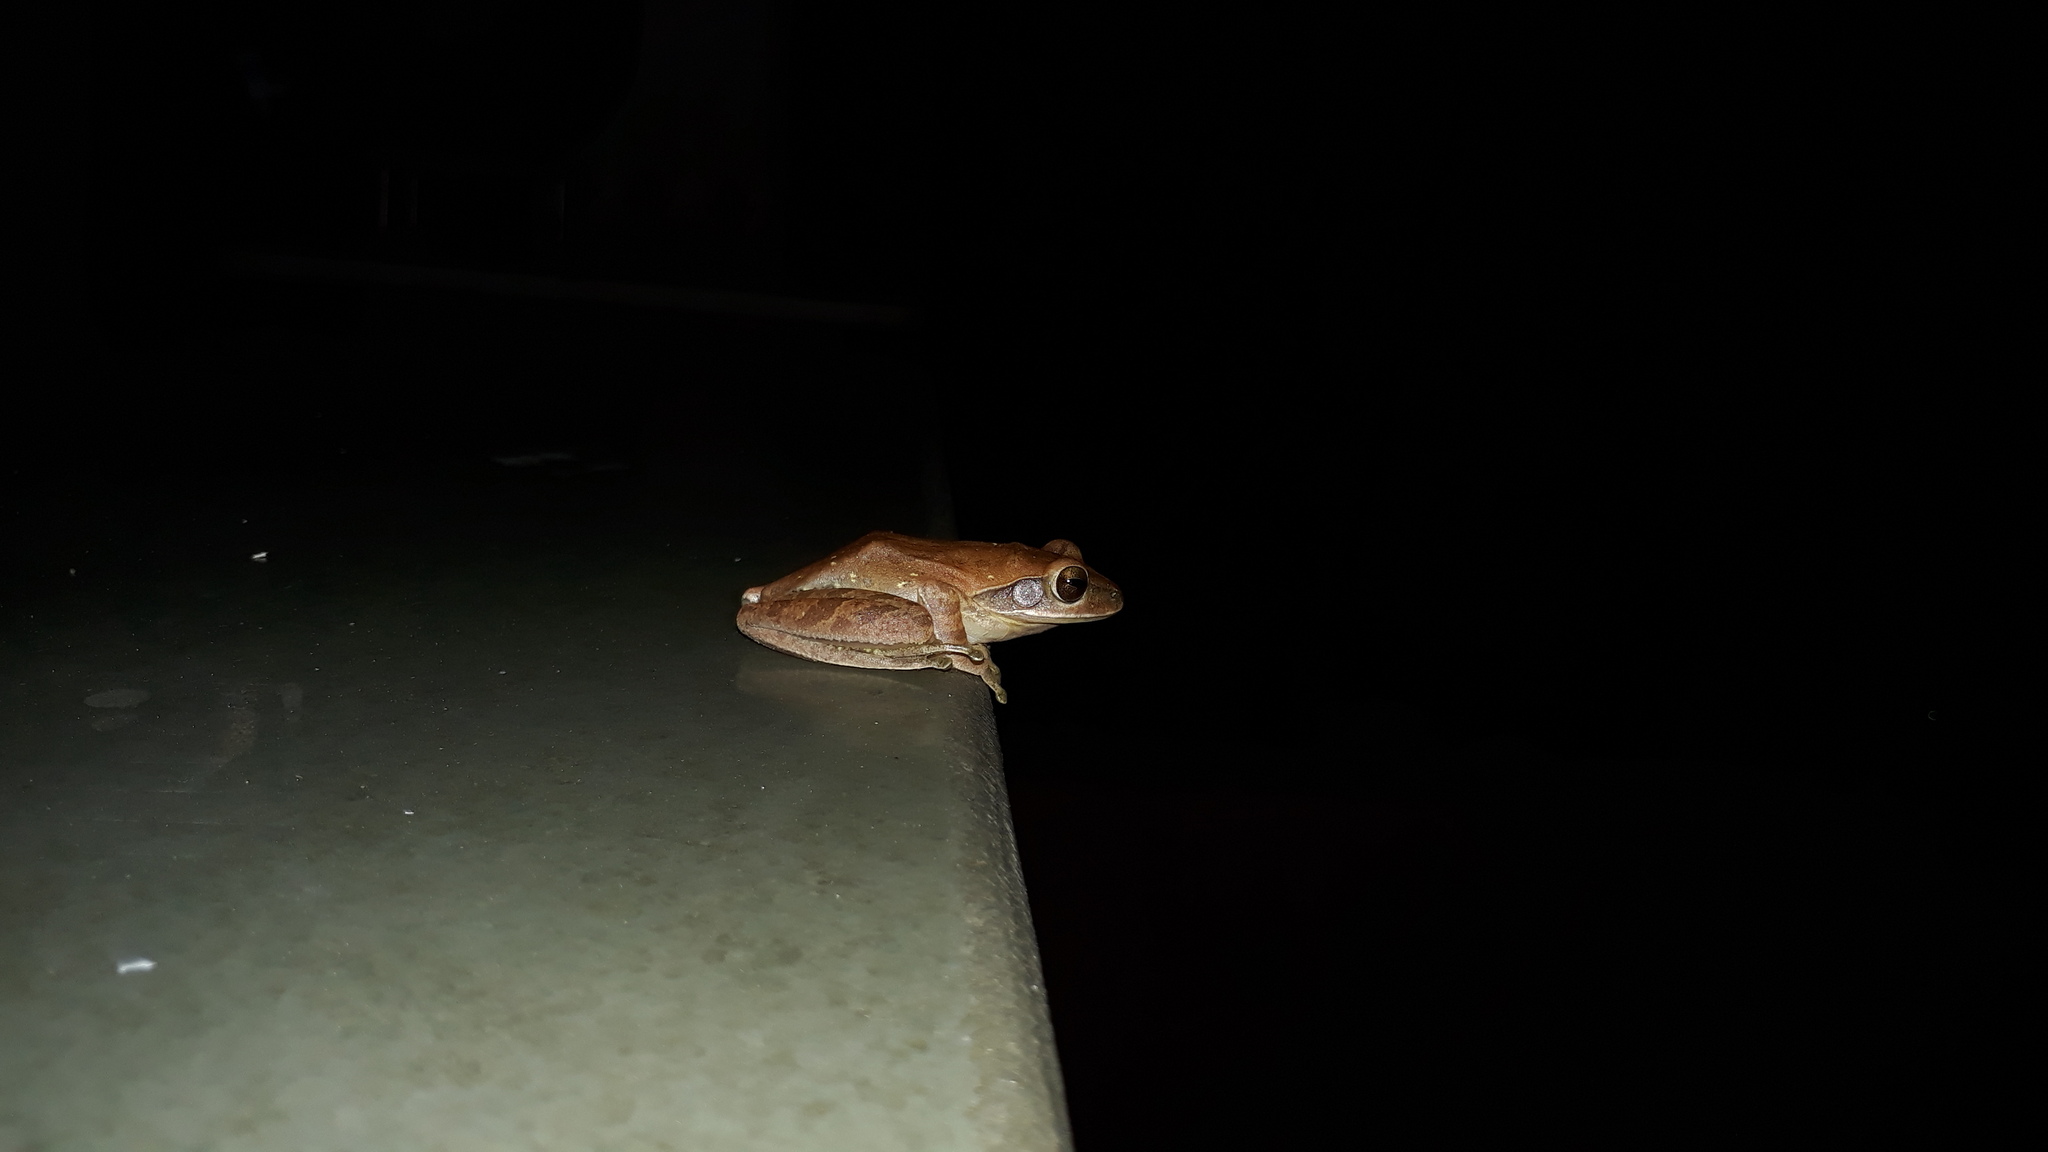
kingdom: Animalia
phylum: Chordata
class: Amphibia
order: Anura
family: Rhacophoridae
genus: Polypedates
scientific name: Polypedates maculatus
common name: Himalayan tree frog
